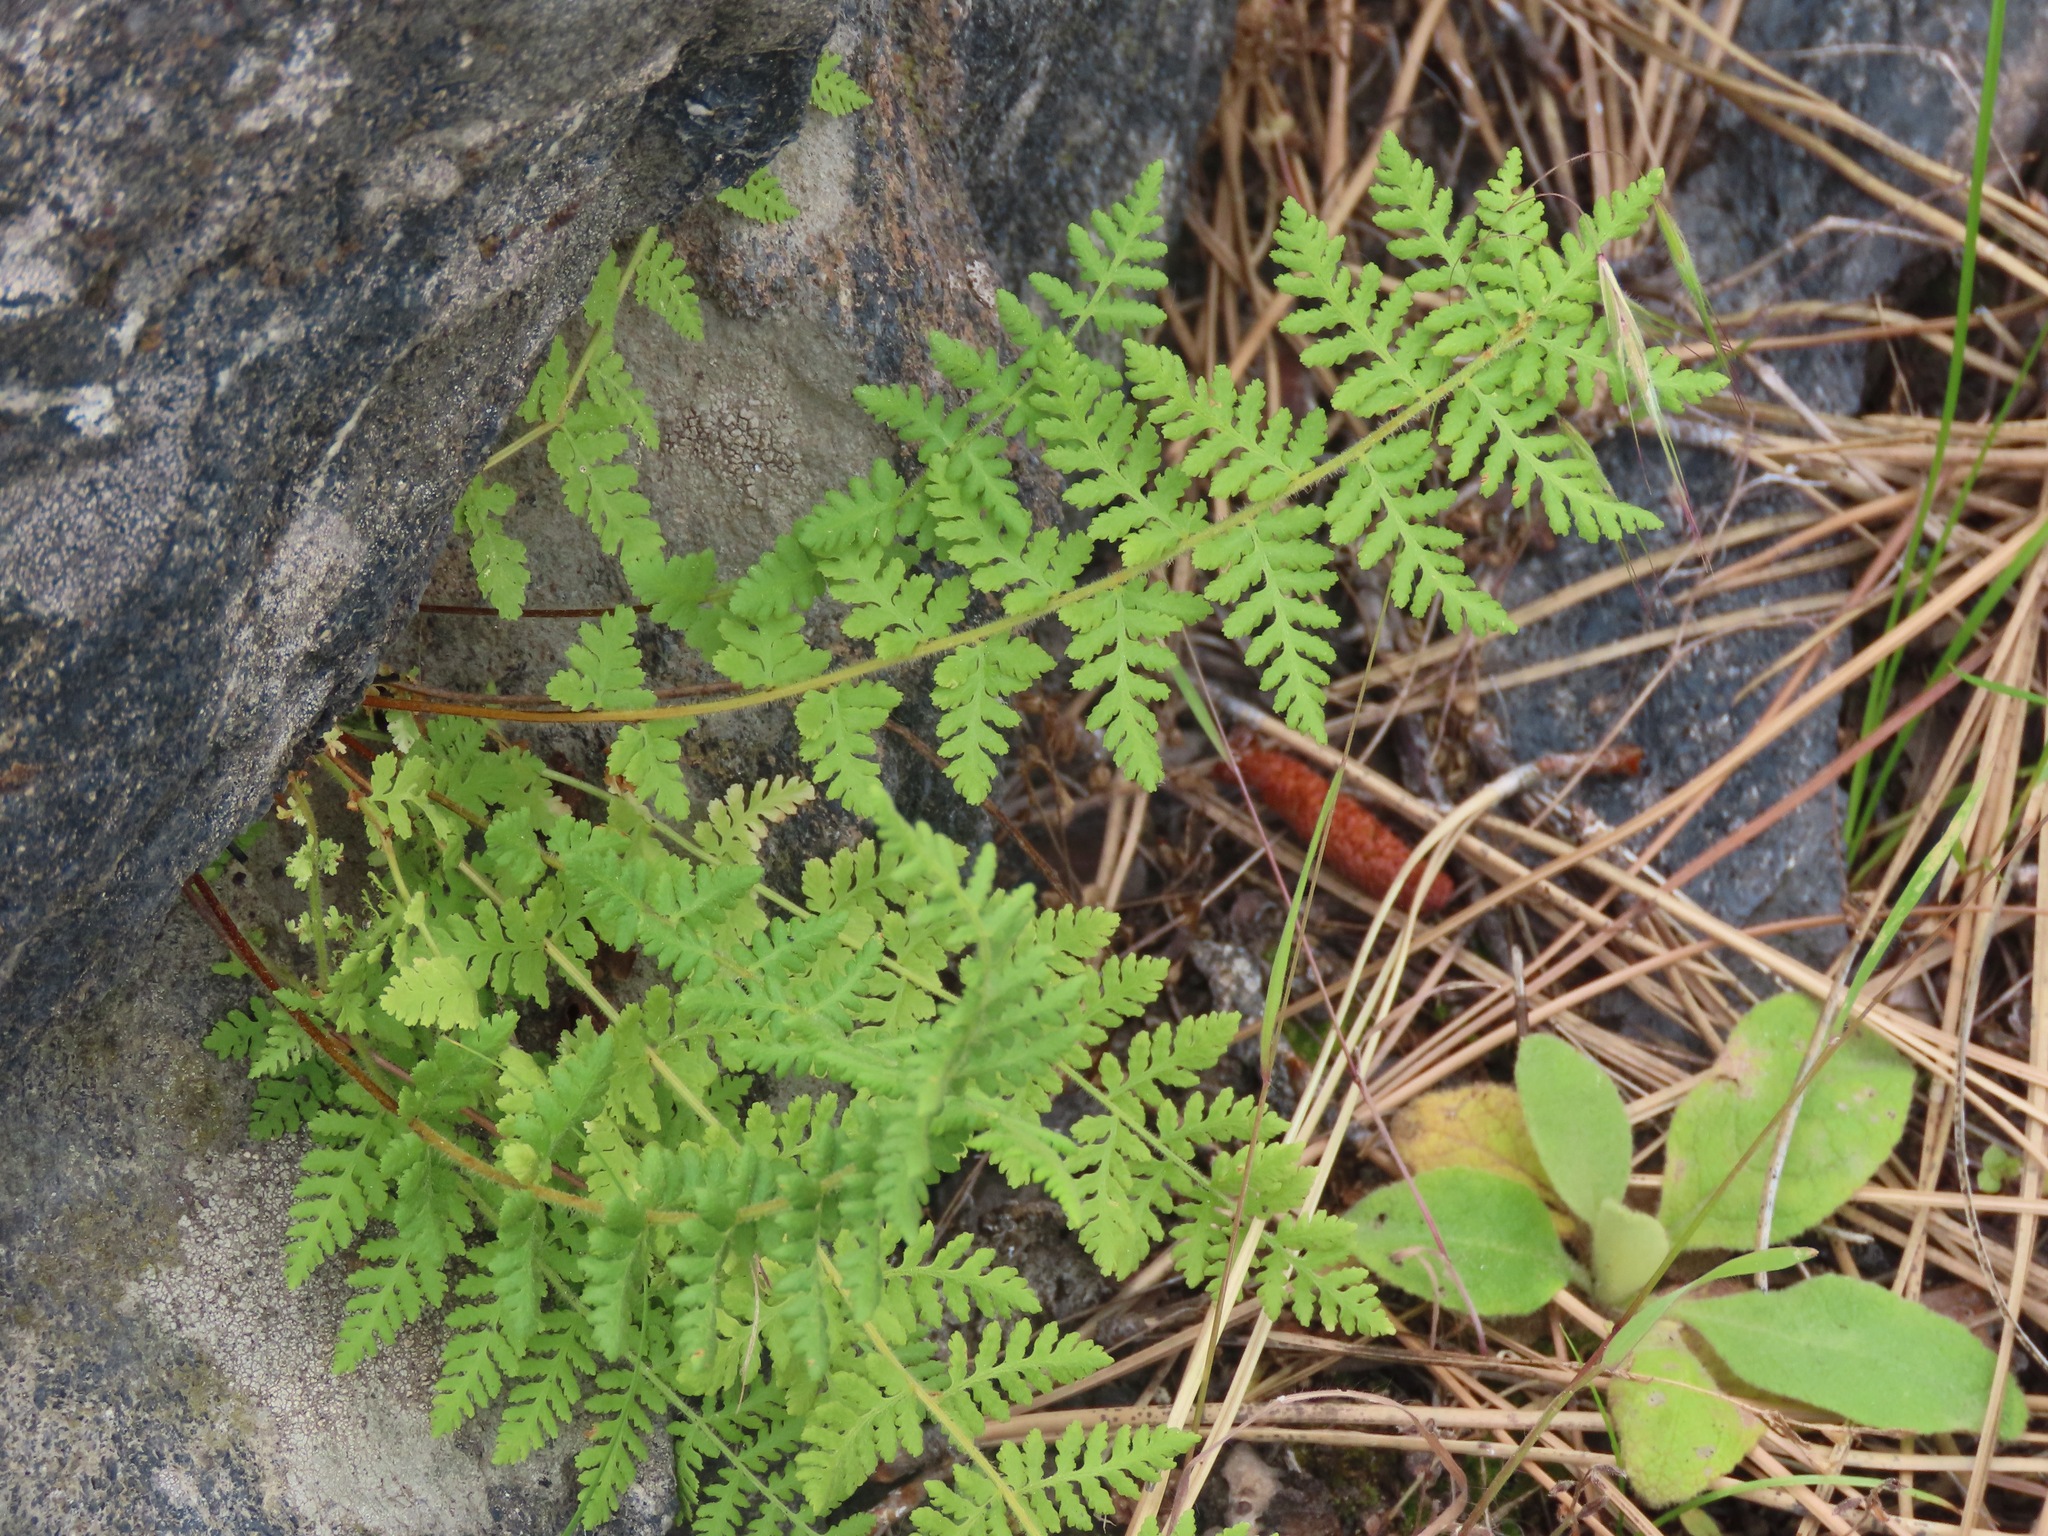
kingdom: Plantae
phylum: Tracheophyta
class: Polypodiopsida
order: Polypodiales
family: Woodsiaceae
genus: Physematium
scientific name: Physematium scopulinum
